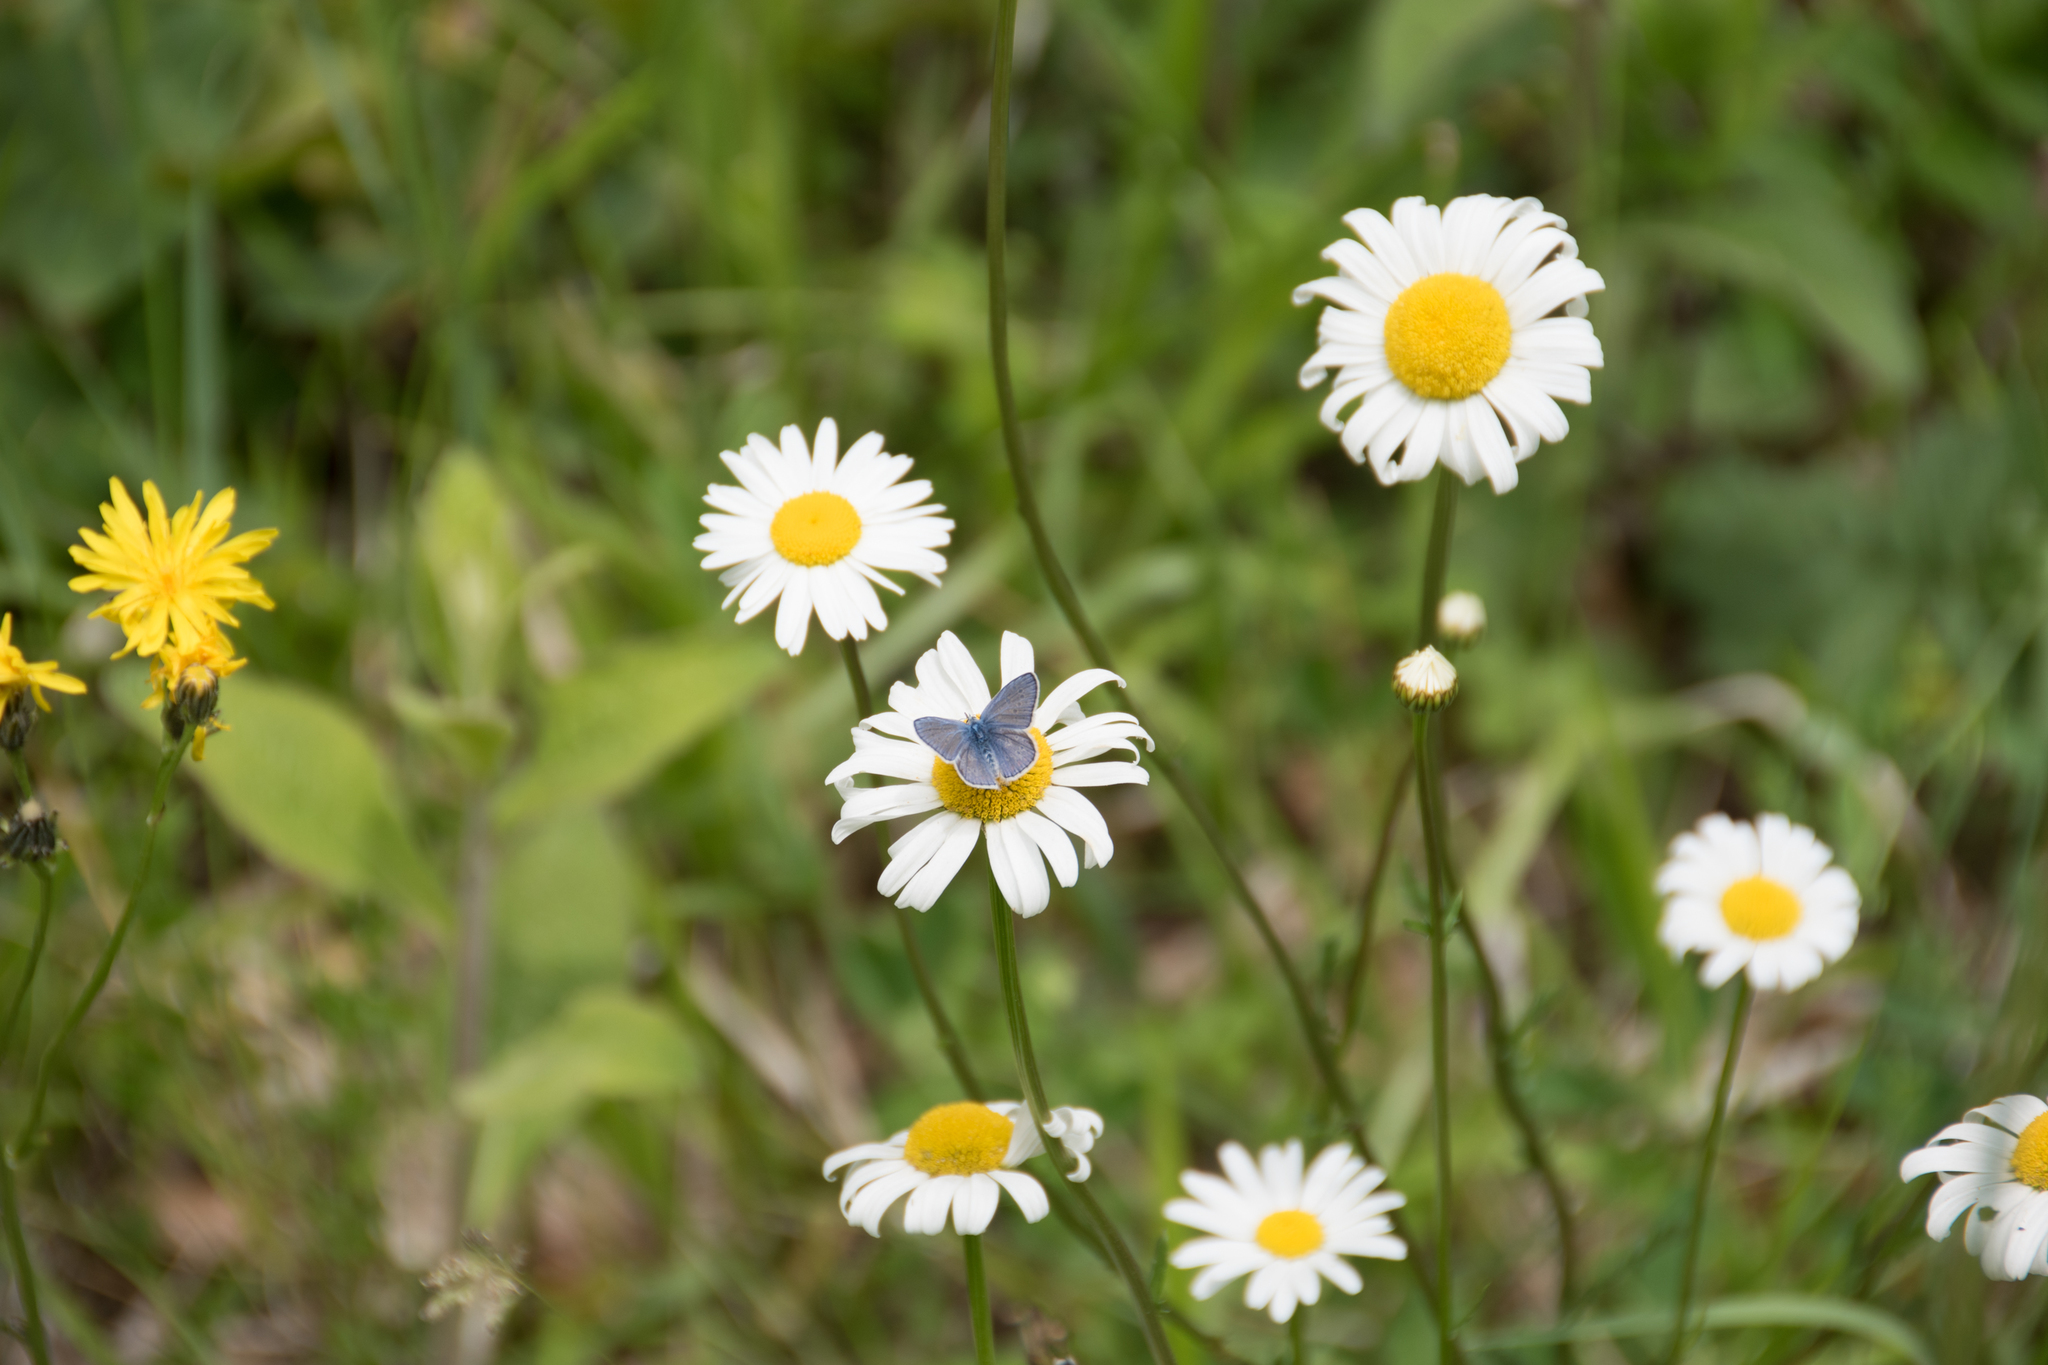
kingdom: Animalia
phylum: Arthropoda
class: Insecta
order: Lepidoptera
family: Lycaenidae
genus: Polyommatus
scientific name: Polyommatus icarus
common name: Common blue
